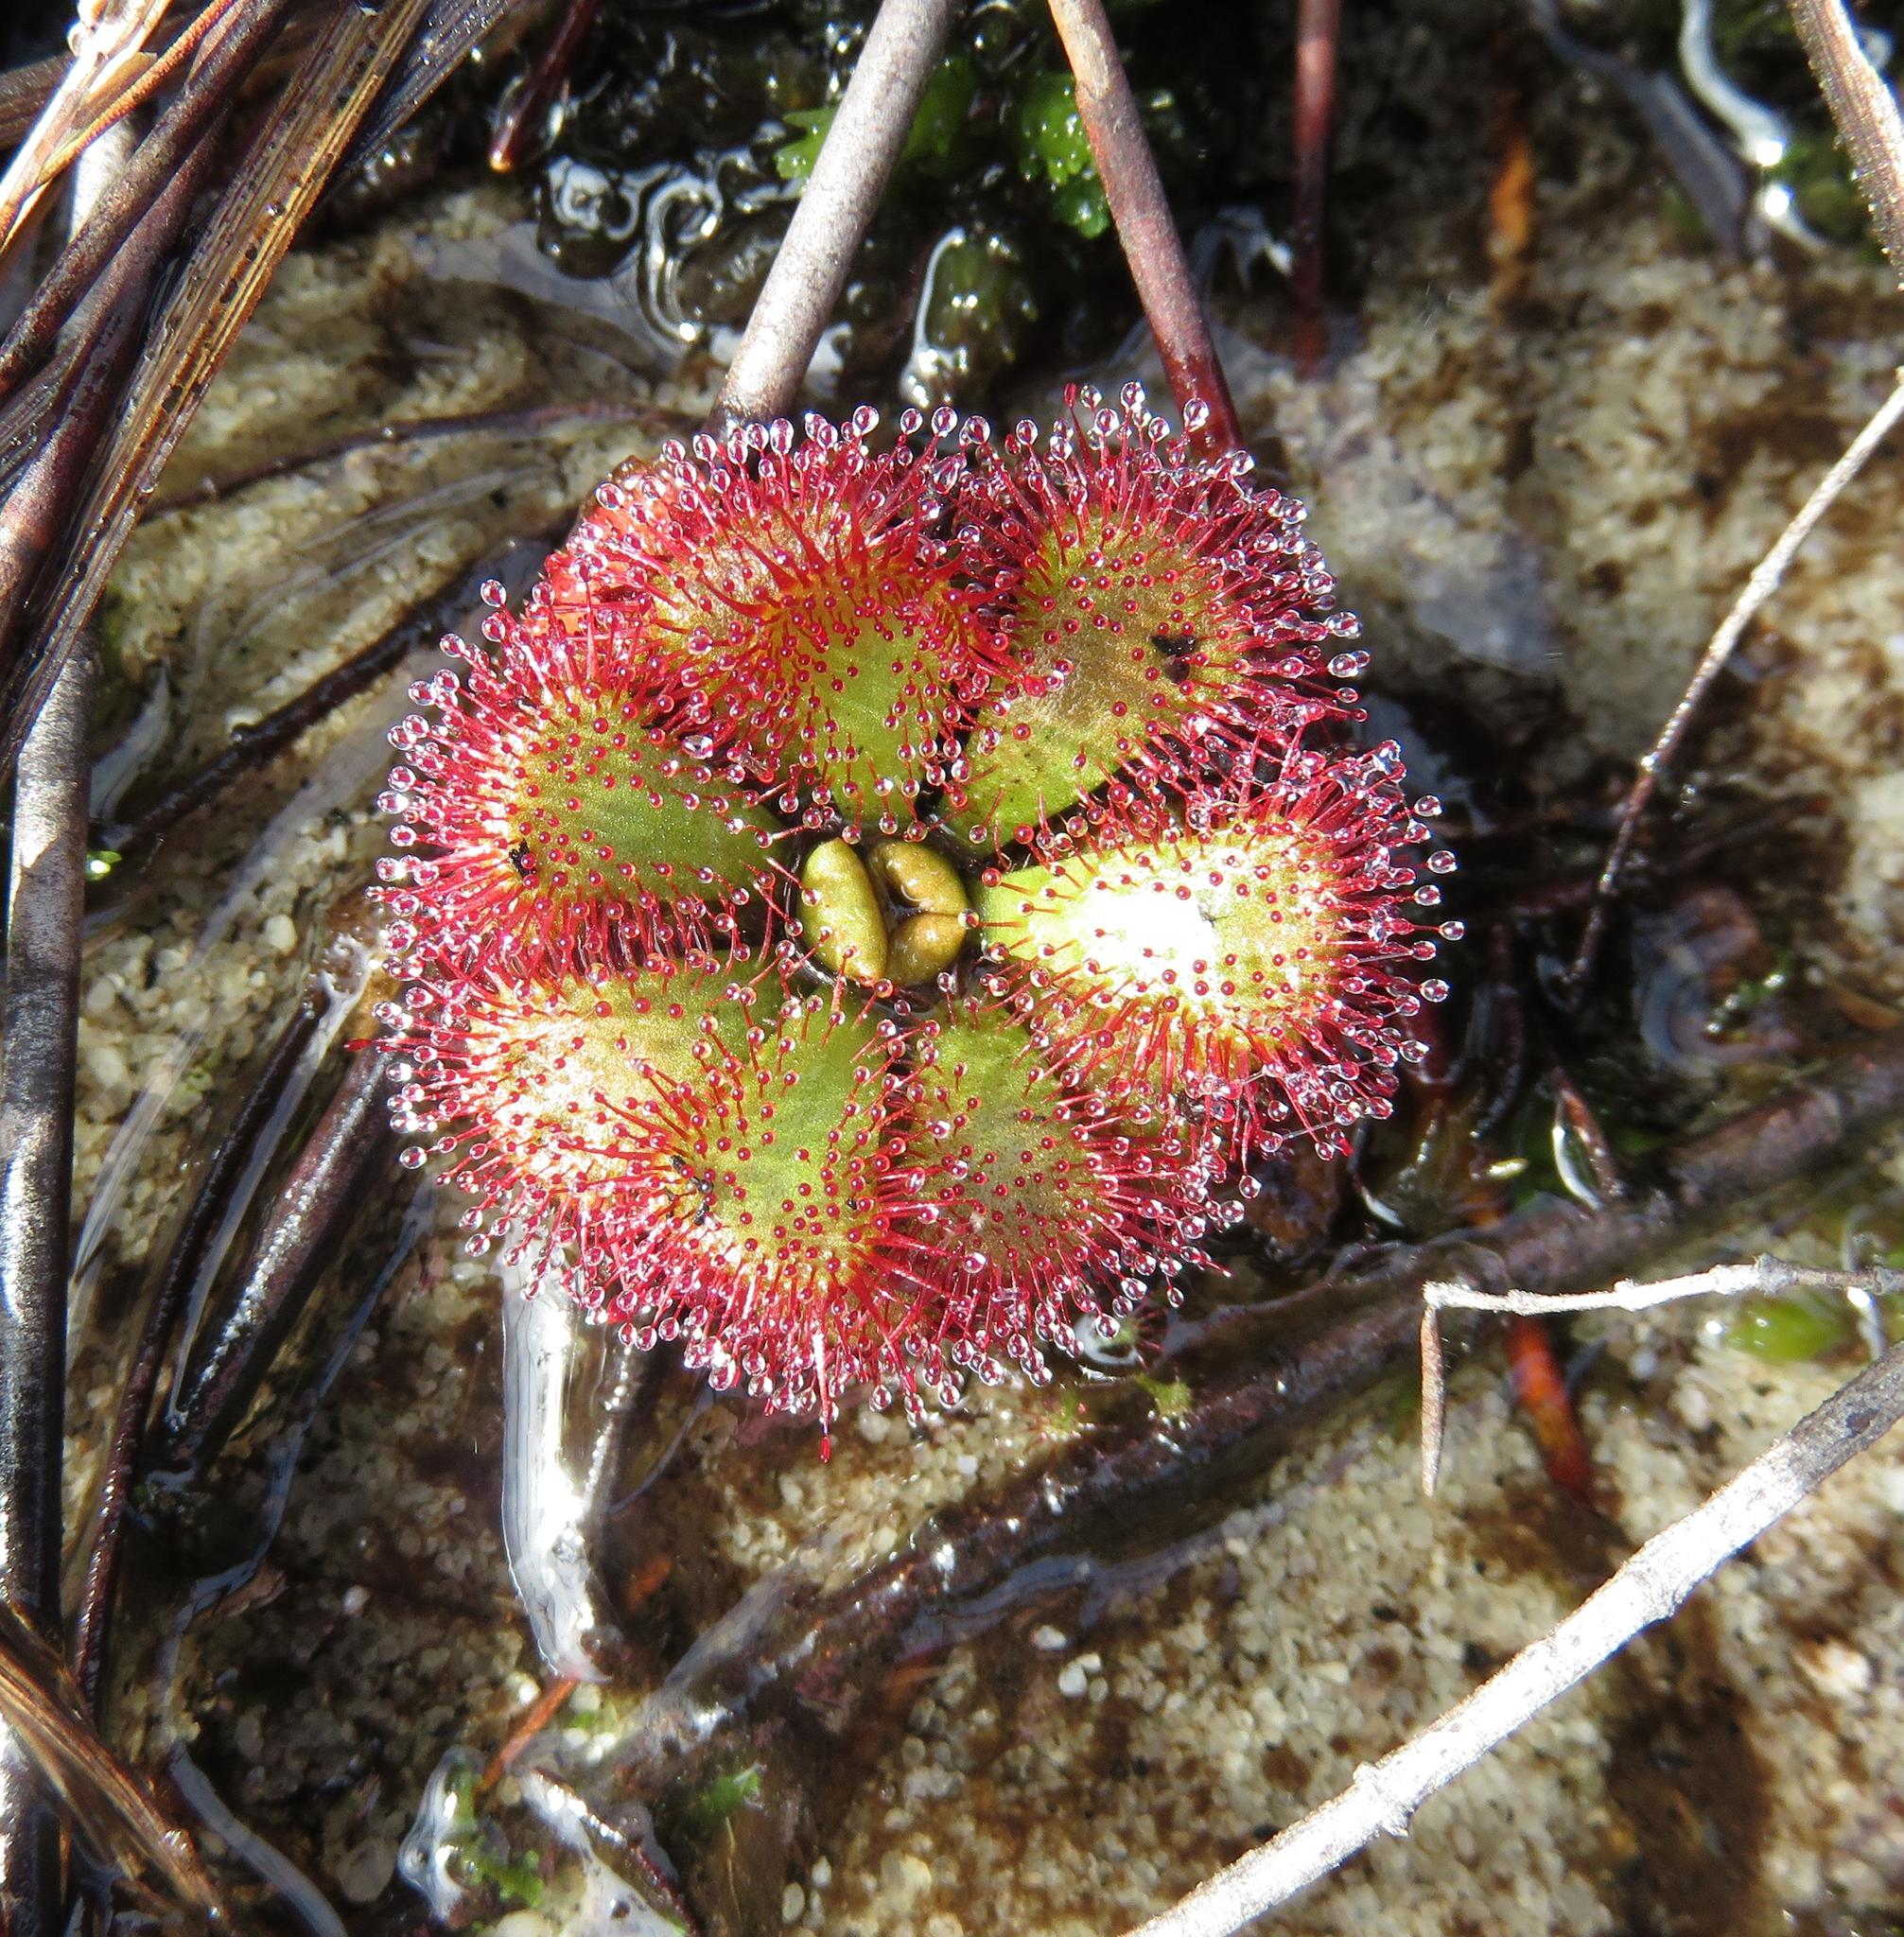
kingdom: Plantae
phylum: Tracheophyta
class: Magnoliopsida
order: Caryophyllales
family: Droseraceae
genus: Drosera
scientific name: Drosera cuneifolia
